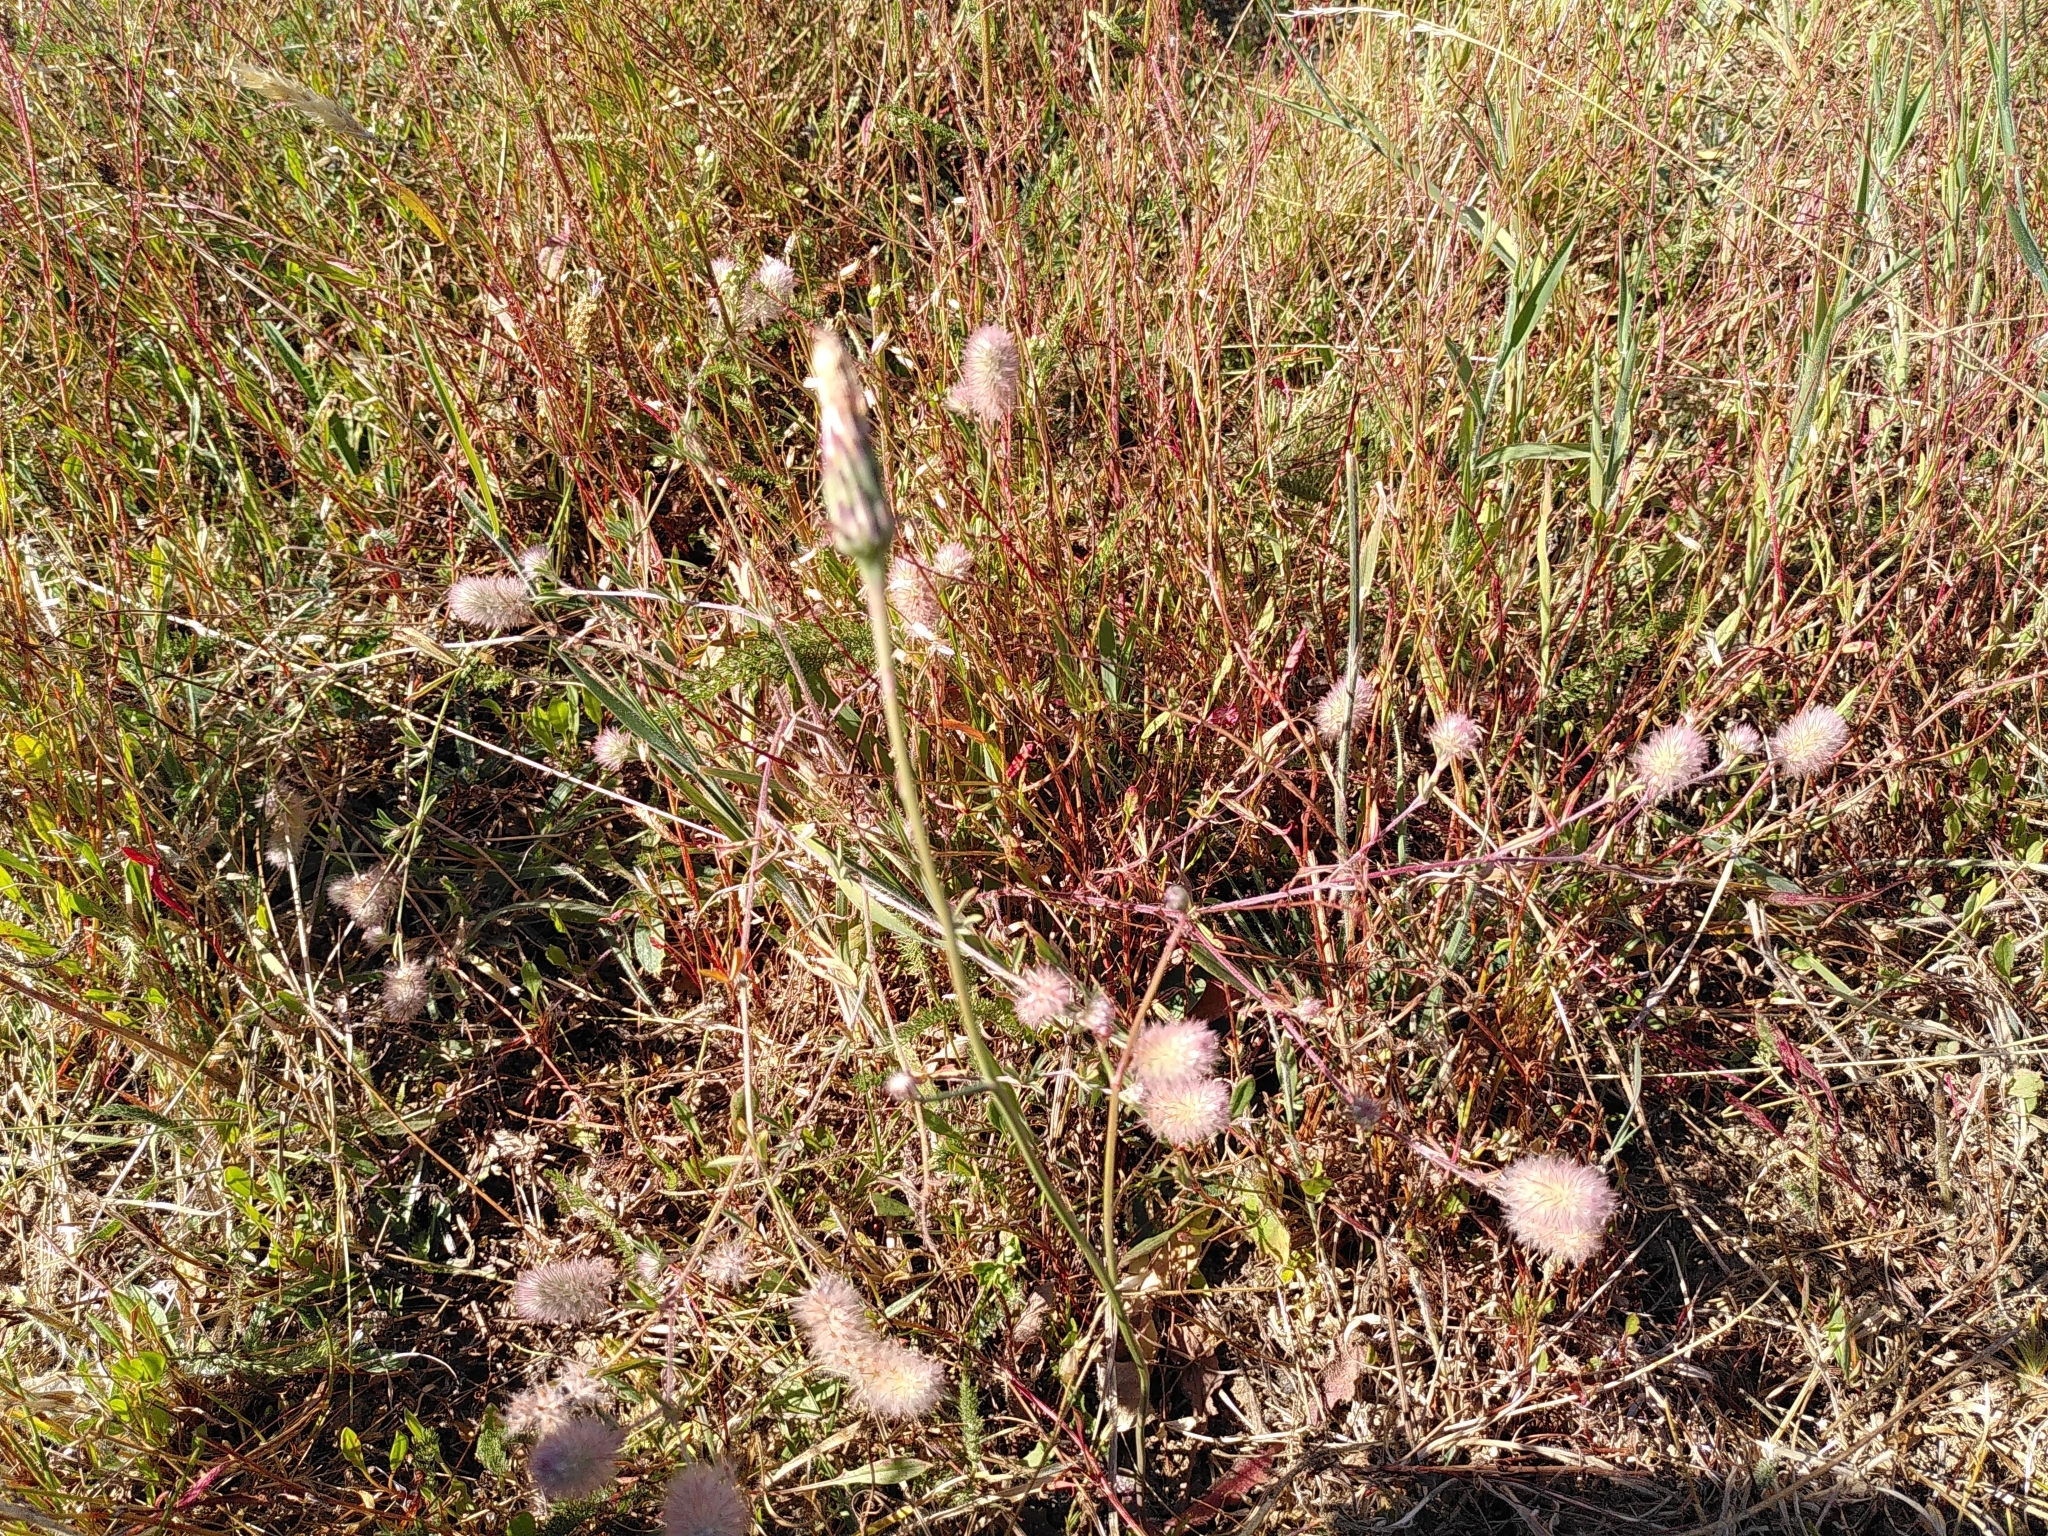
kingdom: Plantae
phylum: Tracheophyta
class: Magnoliopsida
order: Fabales
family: Fabaceae
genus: Trifolium
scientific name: Trifolium arvense
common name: Hare's-foot clover
